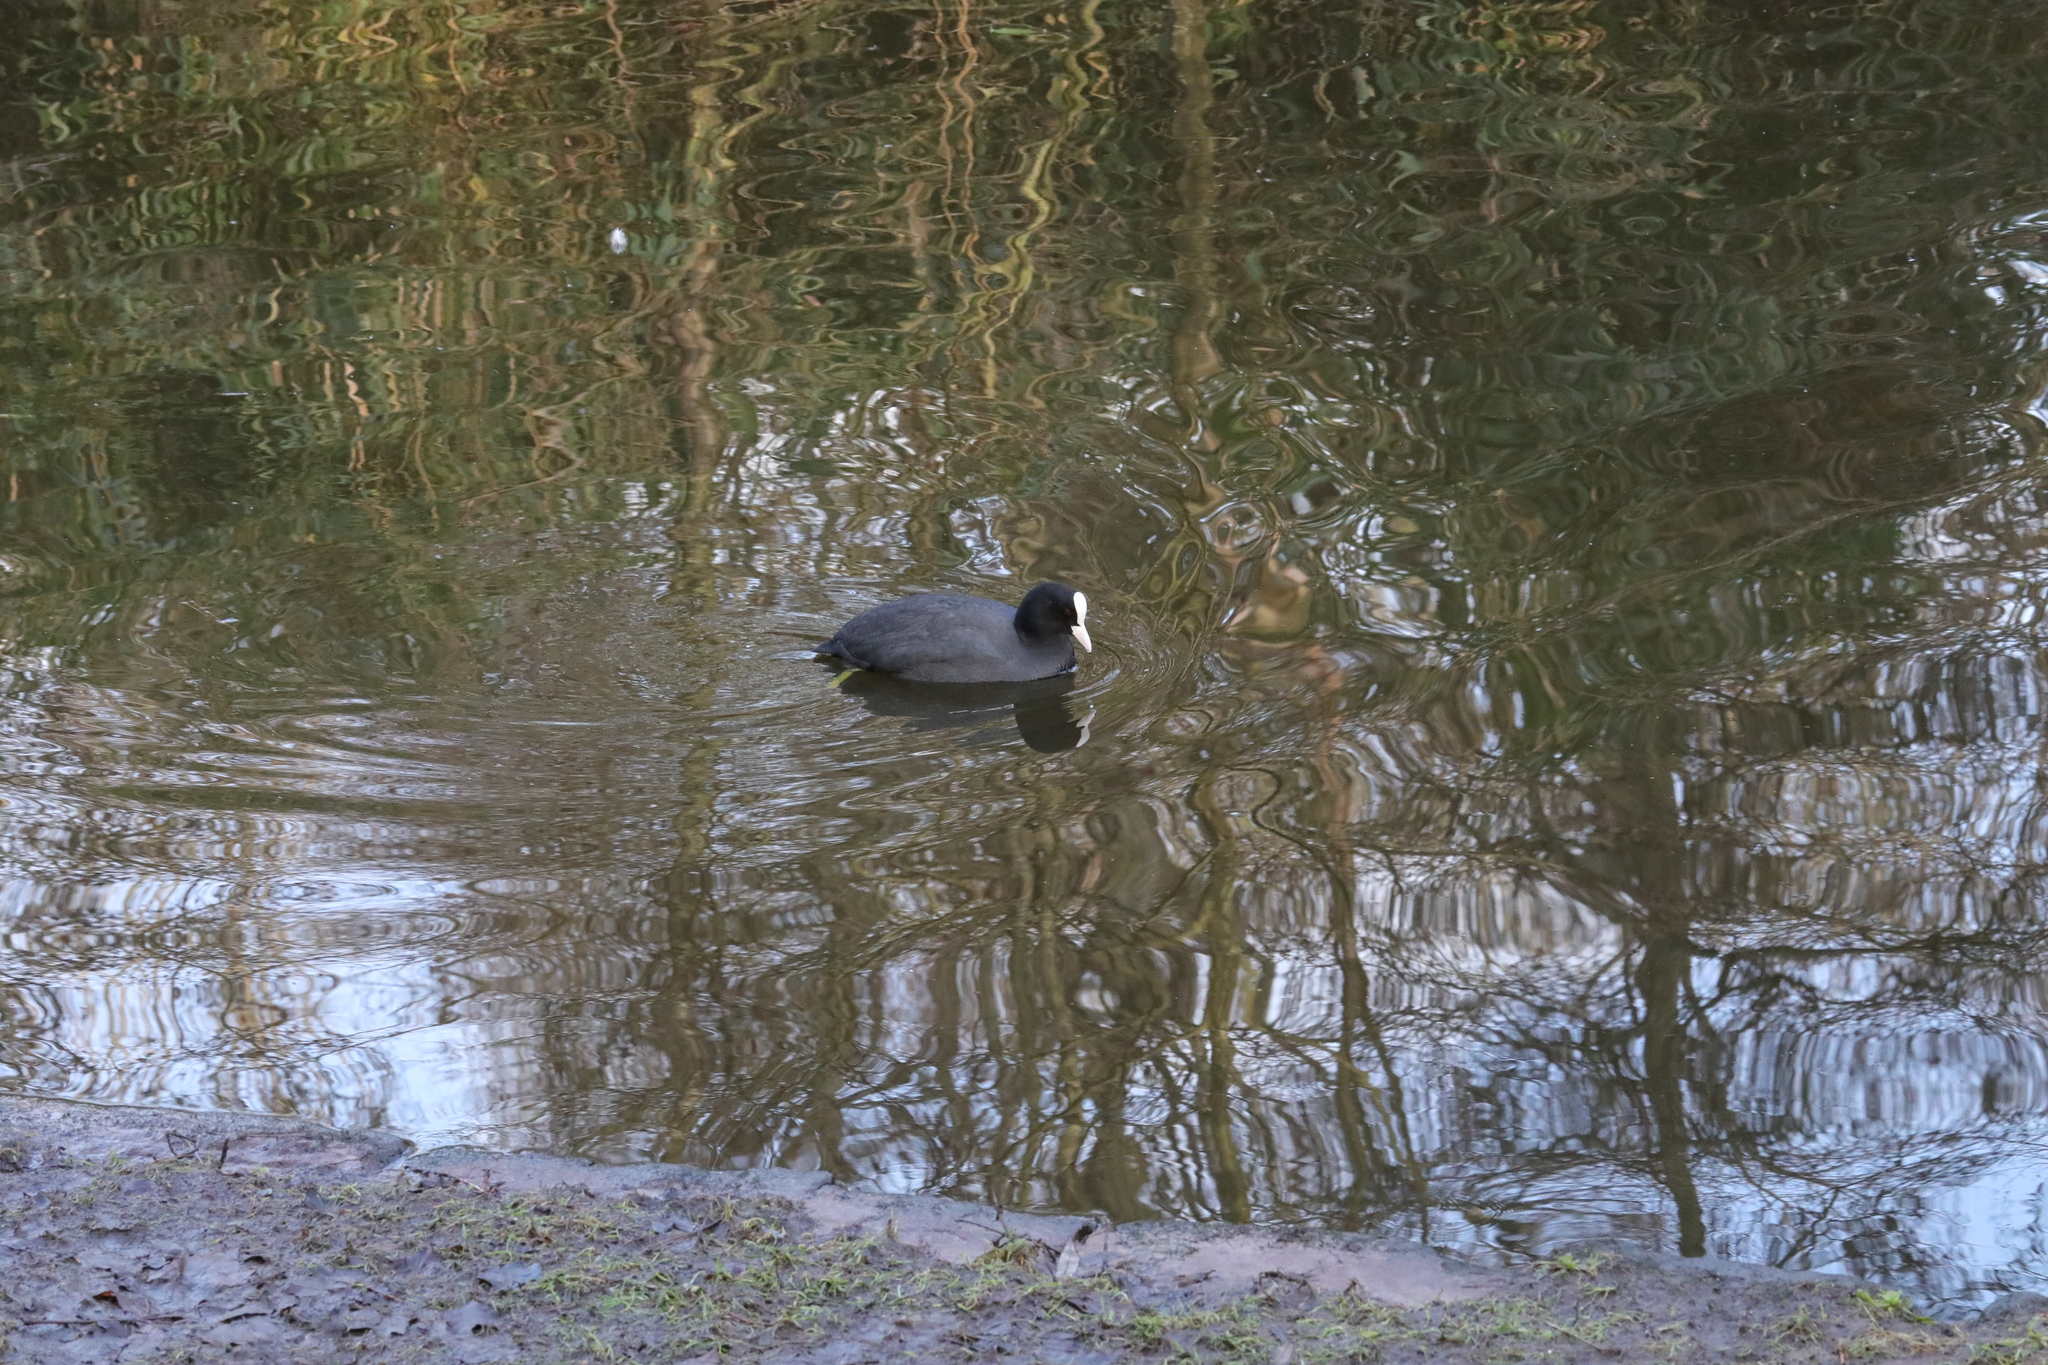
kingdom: Animalia
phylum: Chordata
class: Aves
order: Gruiformes
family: Rallidae
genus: Fulica
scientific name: Fulica atra
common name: Eurasian coot
